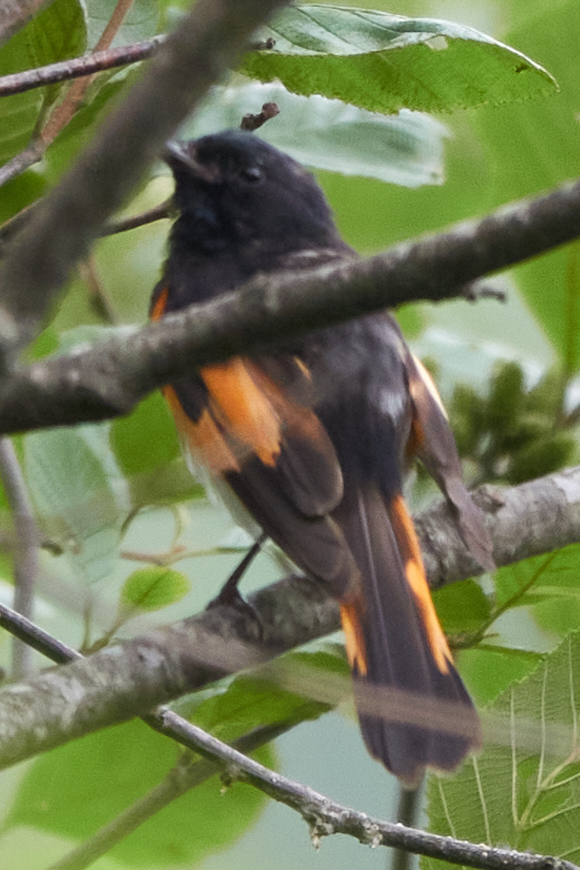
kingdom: Animalia
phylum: Chordata
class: Aves
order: Passeriformes
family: Parulidae
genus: Setophaga
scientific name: Setophaga ruticilla
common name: American redstart
